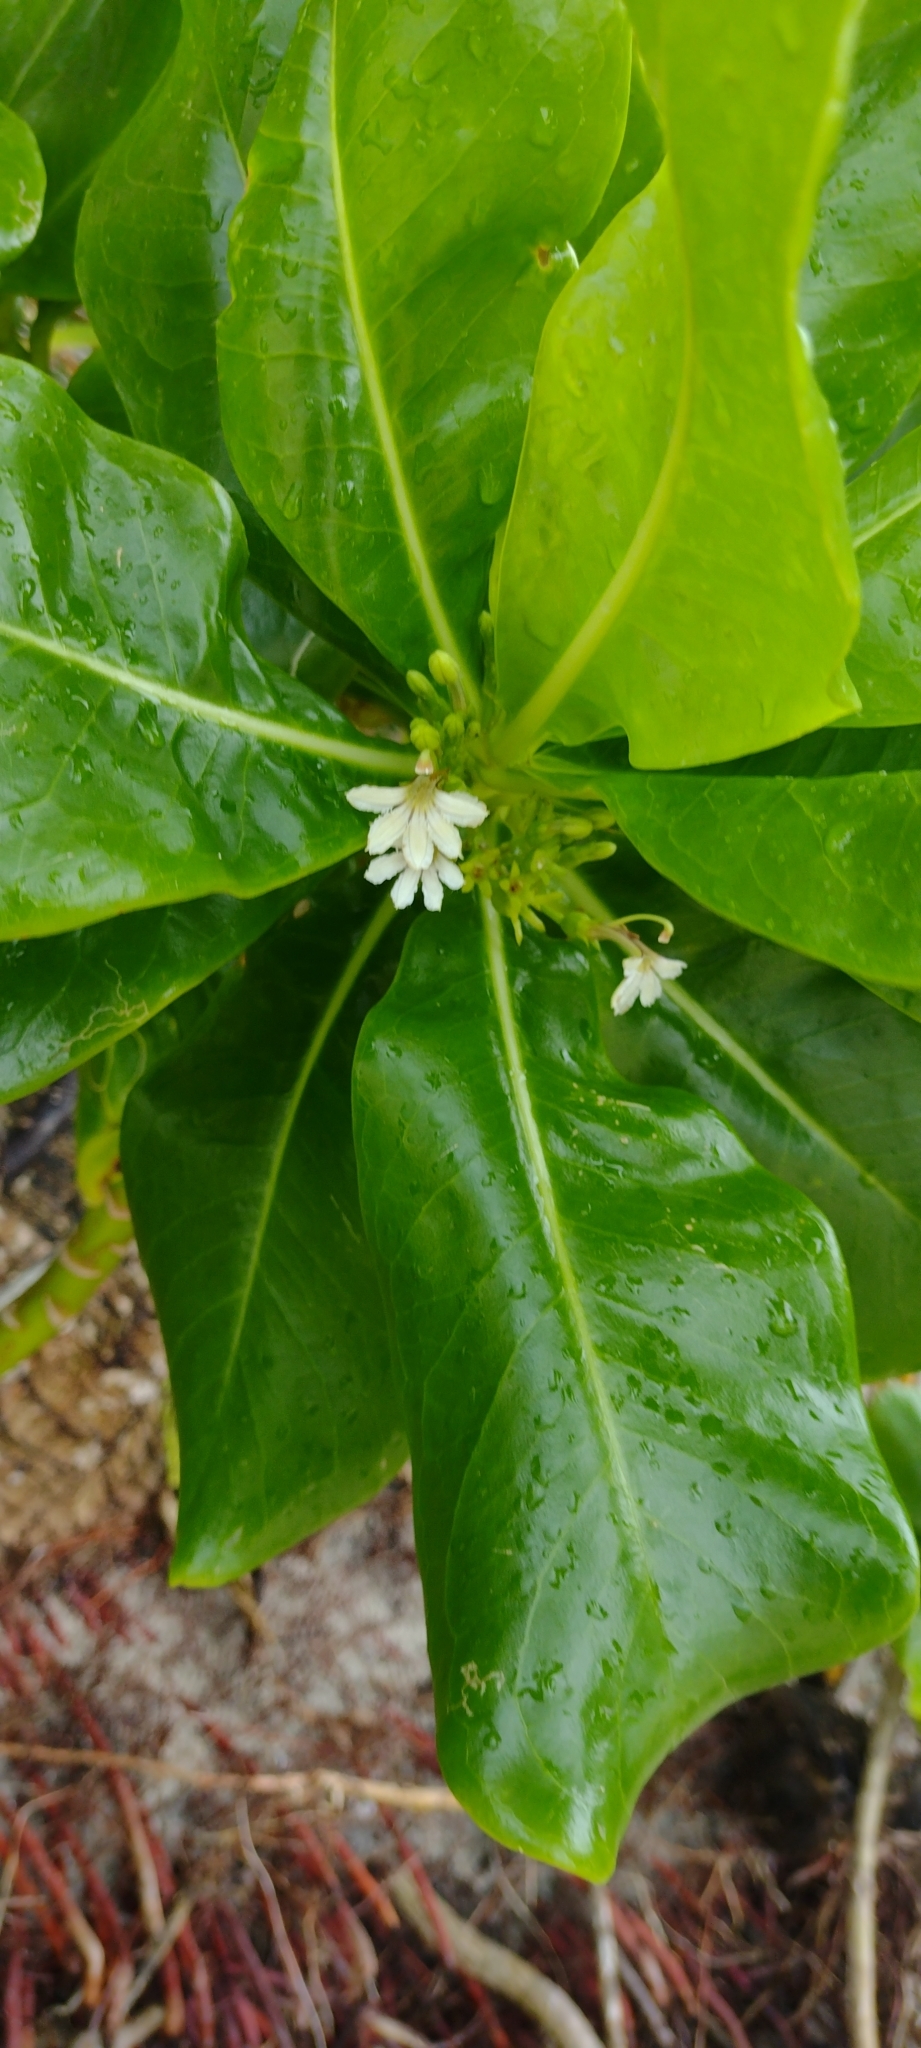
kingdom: Plantae
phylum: Tracheophyta
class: Magnoliopsida
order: Asterales
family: Goodeniaceae
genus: Scaevola
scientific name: Scaevola taccada
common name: Sea lettucetree
